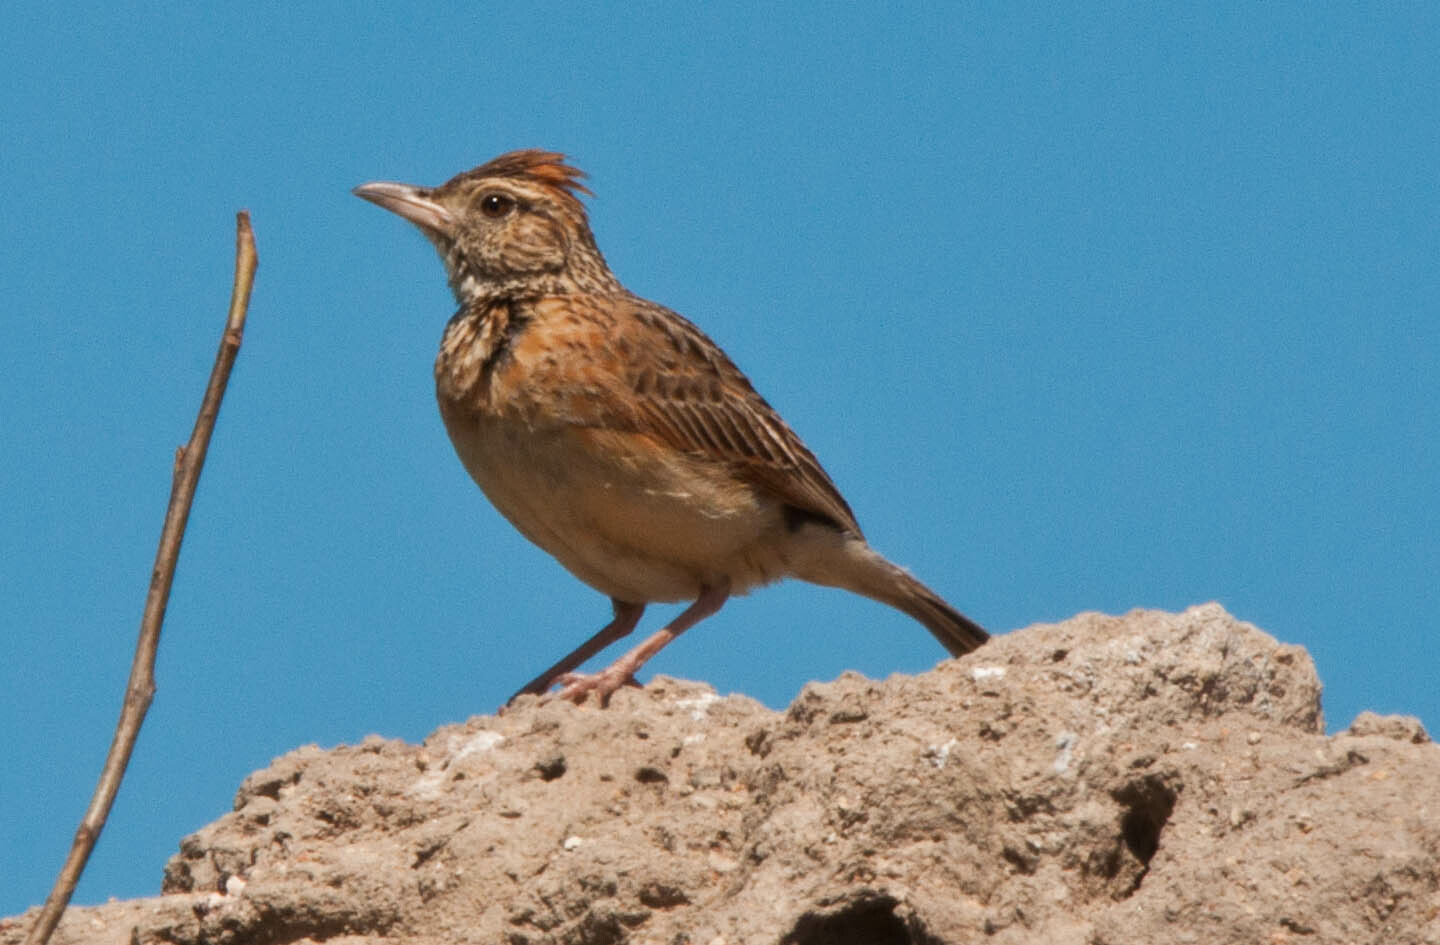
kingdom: Animalia
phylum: Chordata
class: Aves
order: Passeriformes
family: Alaudidae
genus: Mirafra
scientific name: Mirafra africana
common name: Rufous-naped lark
